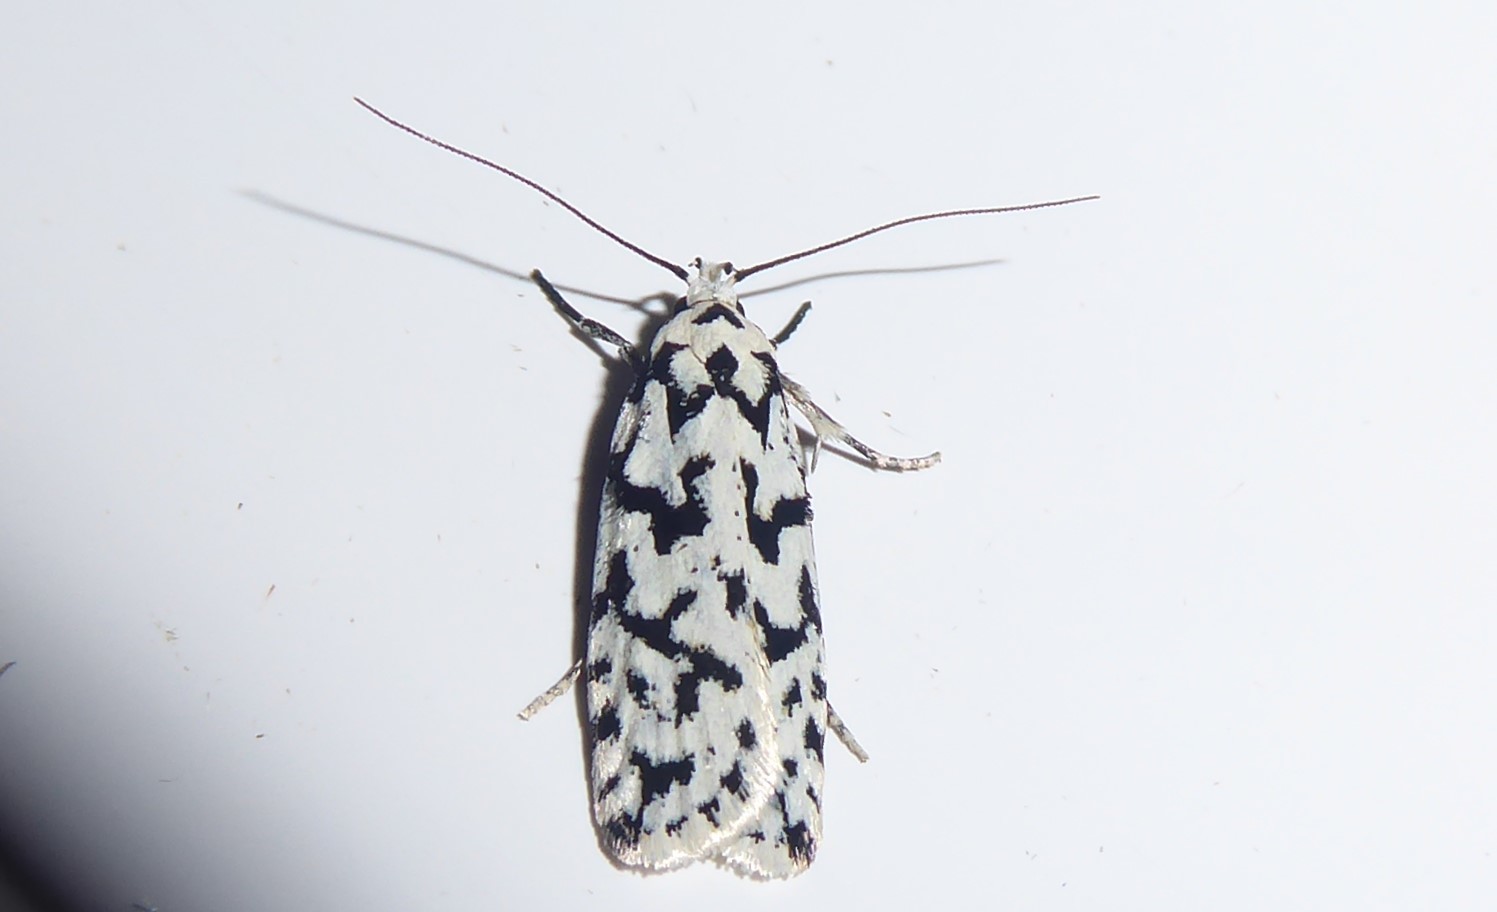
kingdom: Animalia
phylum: Arthropoda
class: Insecta
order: Lepidoptera
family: Oecophoridae
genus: Izatha
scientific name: Izatha katadiktya
